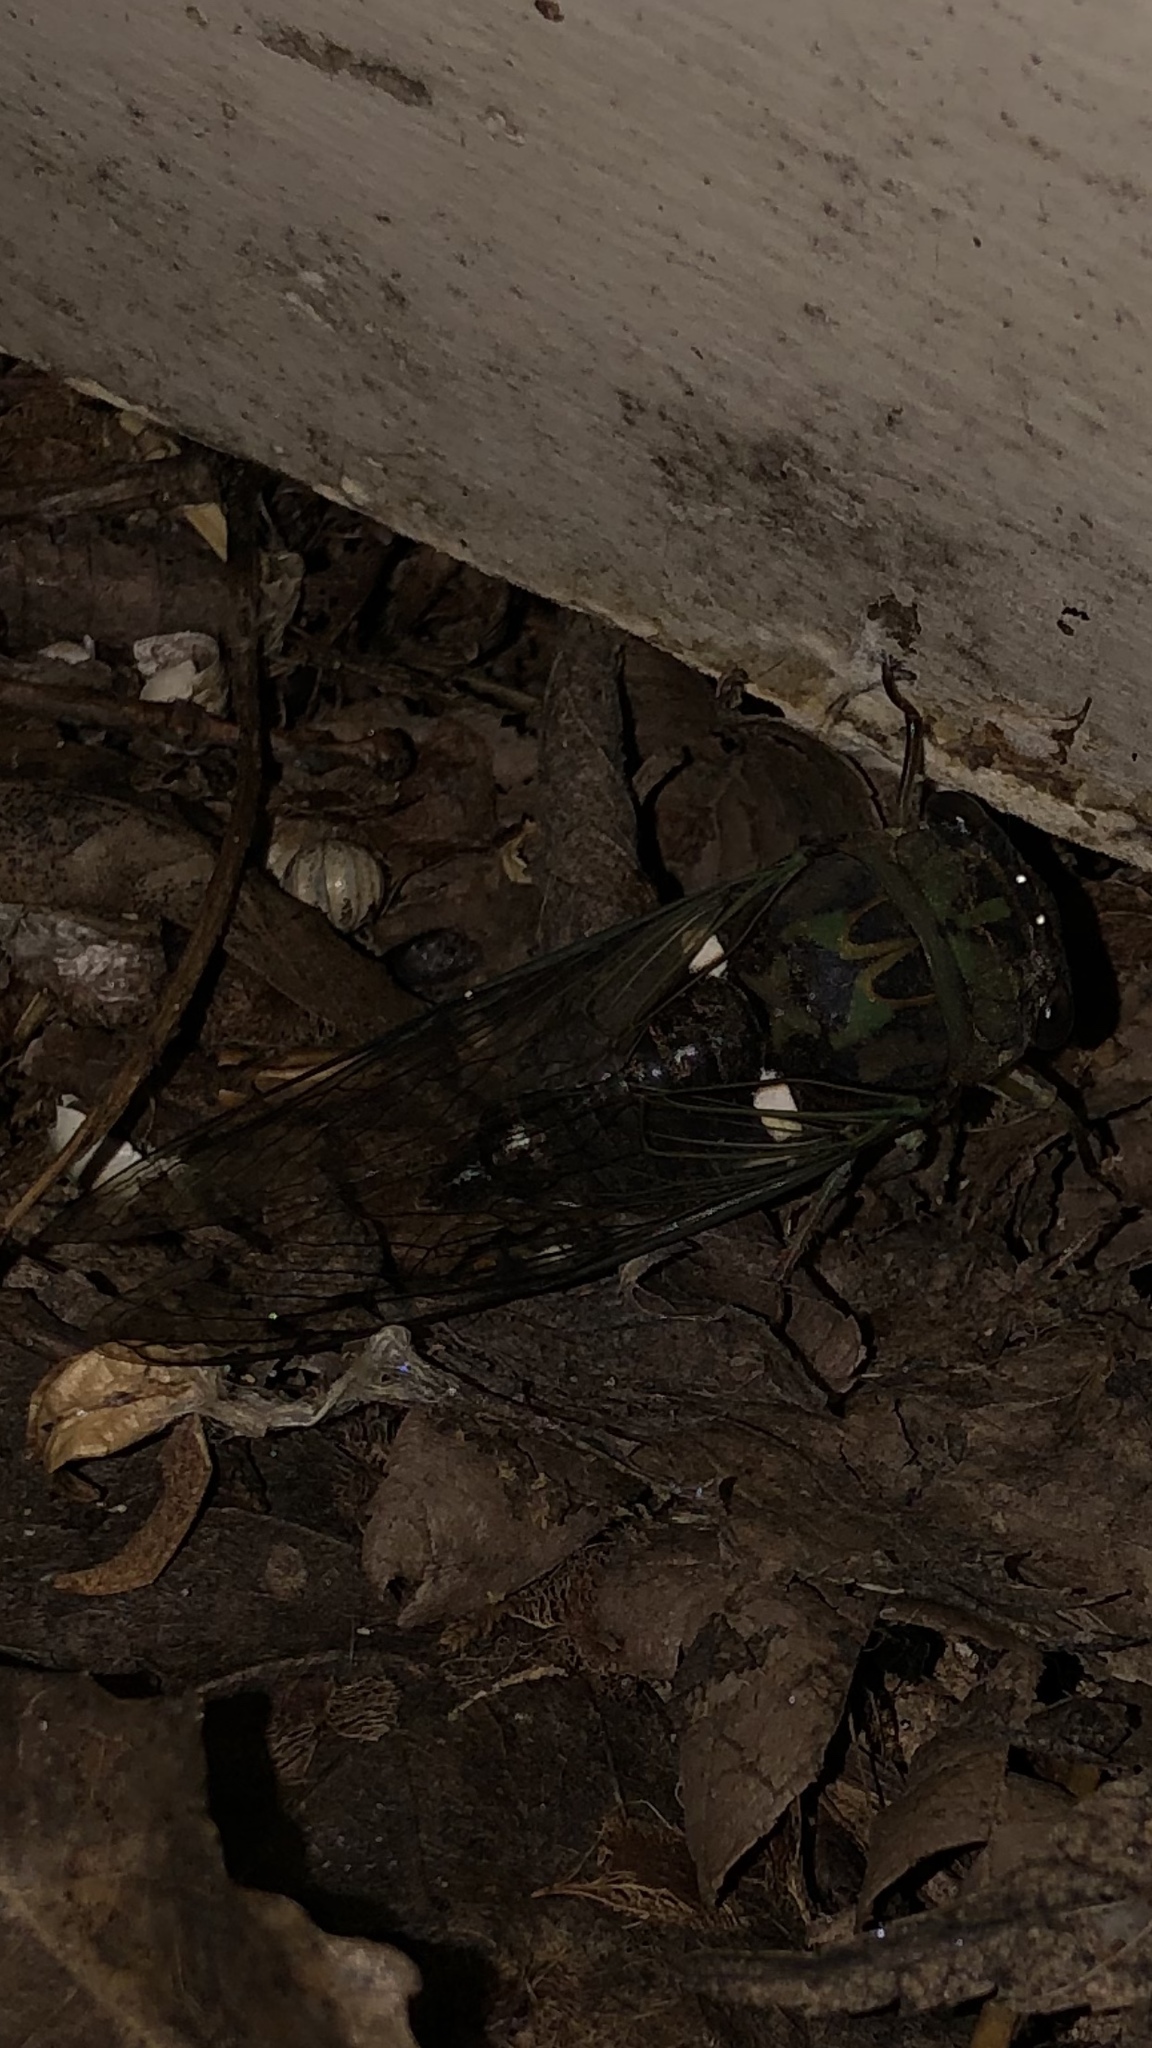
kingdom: Animalia
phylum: Arthropoda
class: Insecta
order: Hemiptera
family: Cicadidae
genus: Neotibicen
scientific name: Neotibicen pruinosus
